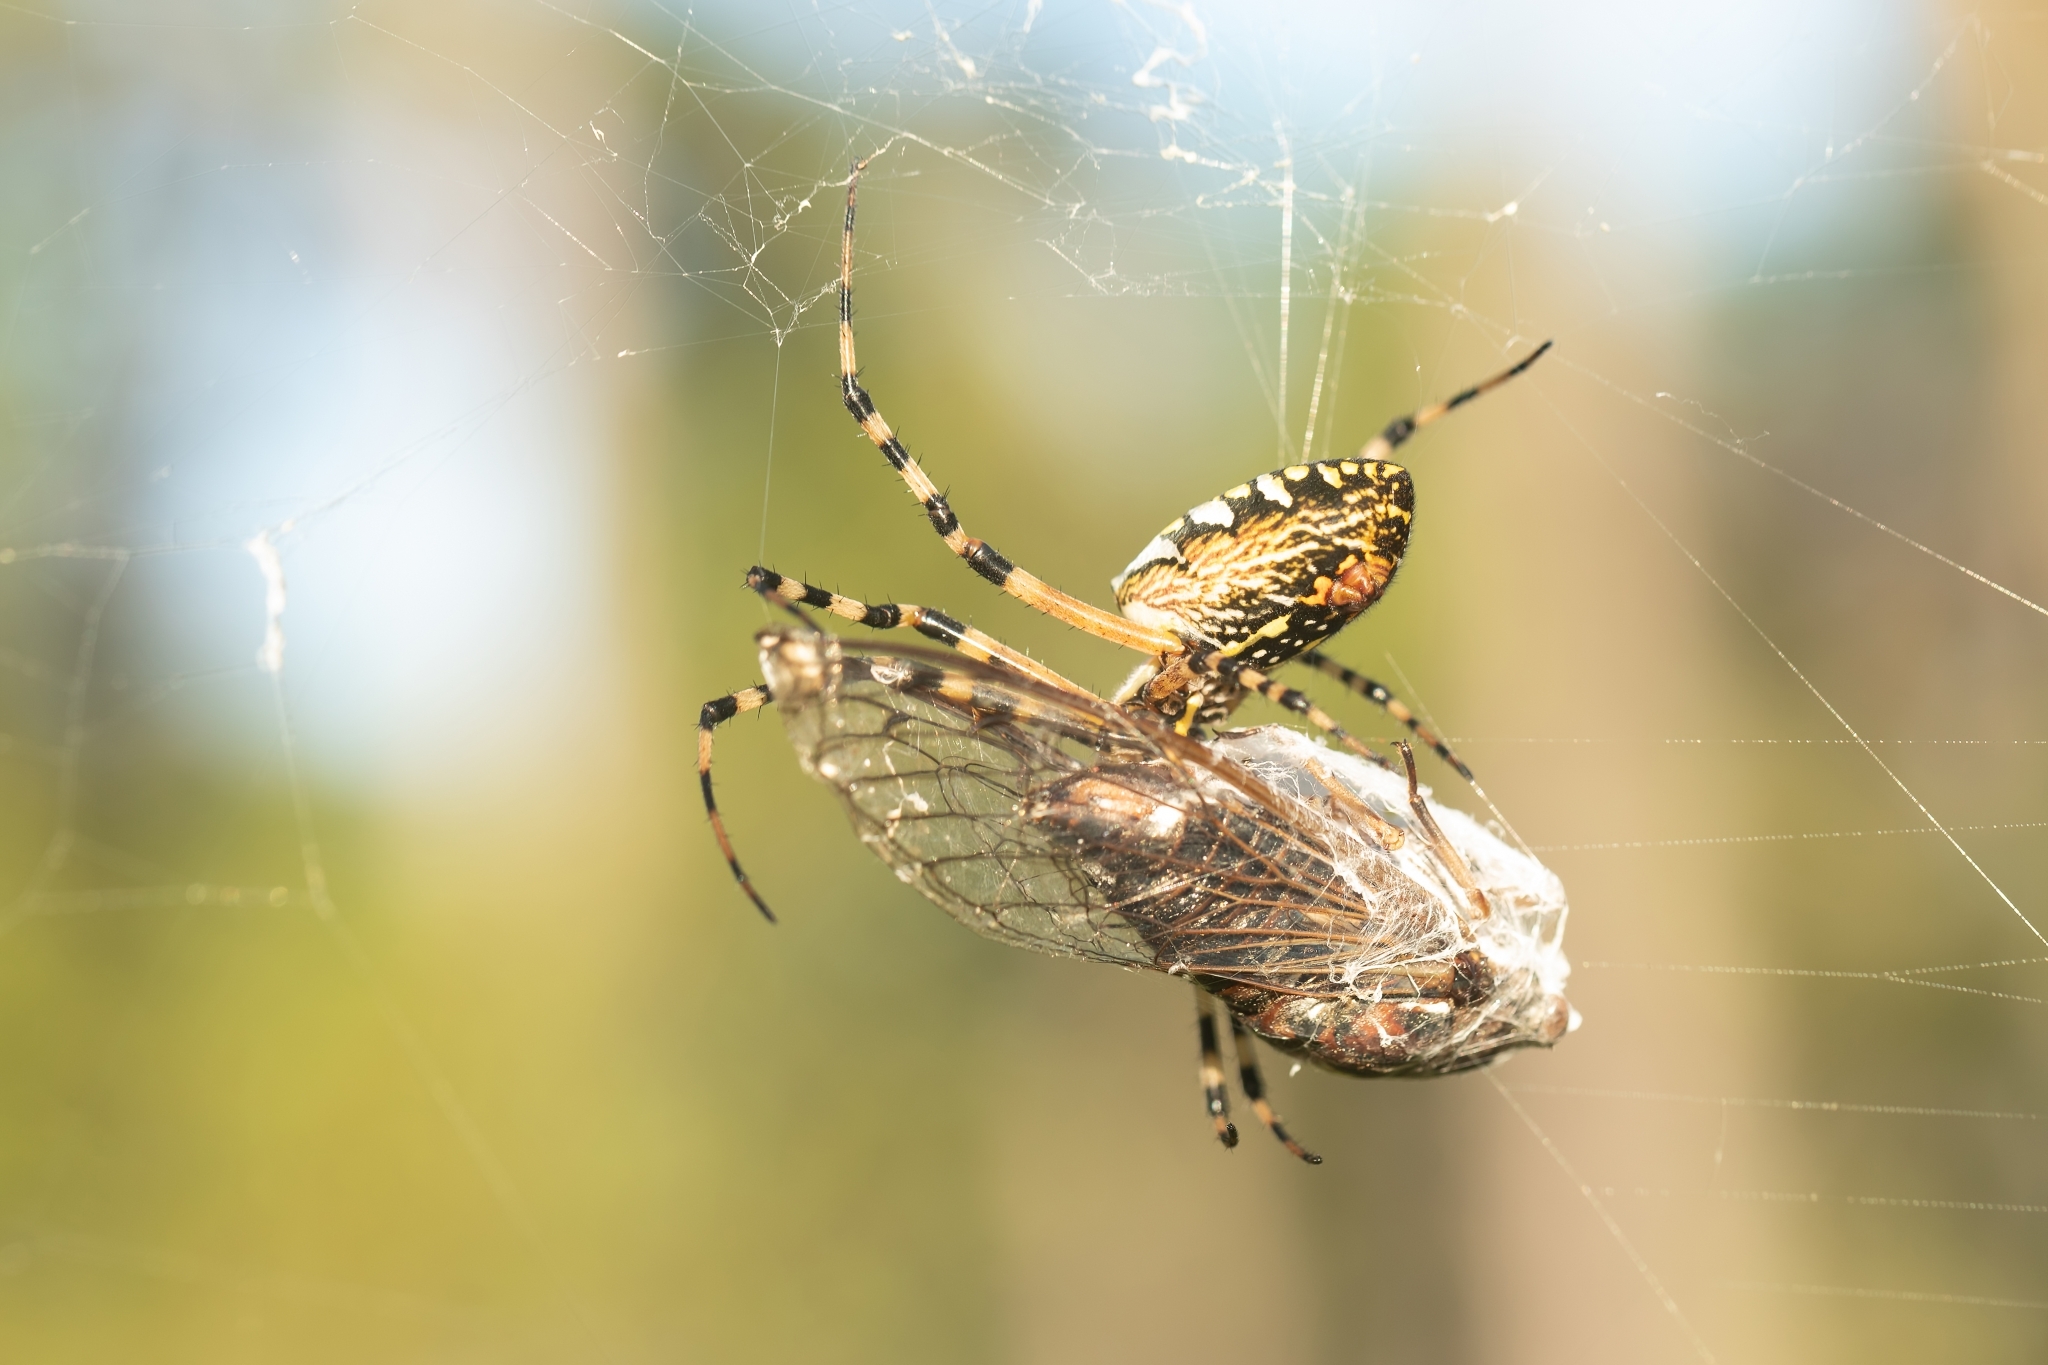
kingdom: Animalia
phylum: Arthropoda
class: Arachnida
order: Araneae
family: Araneidae
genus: Argiope
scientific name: Argiope aurantia
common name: Orb weavers
